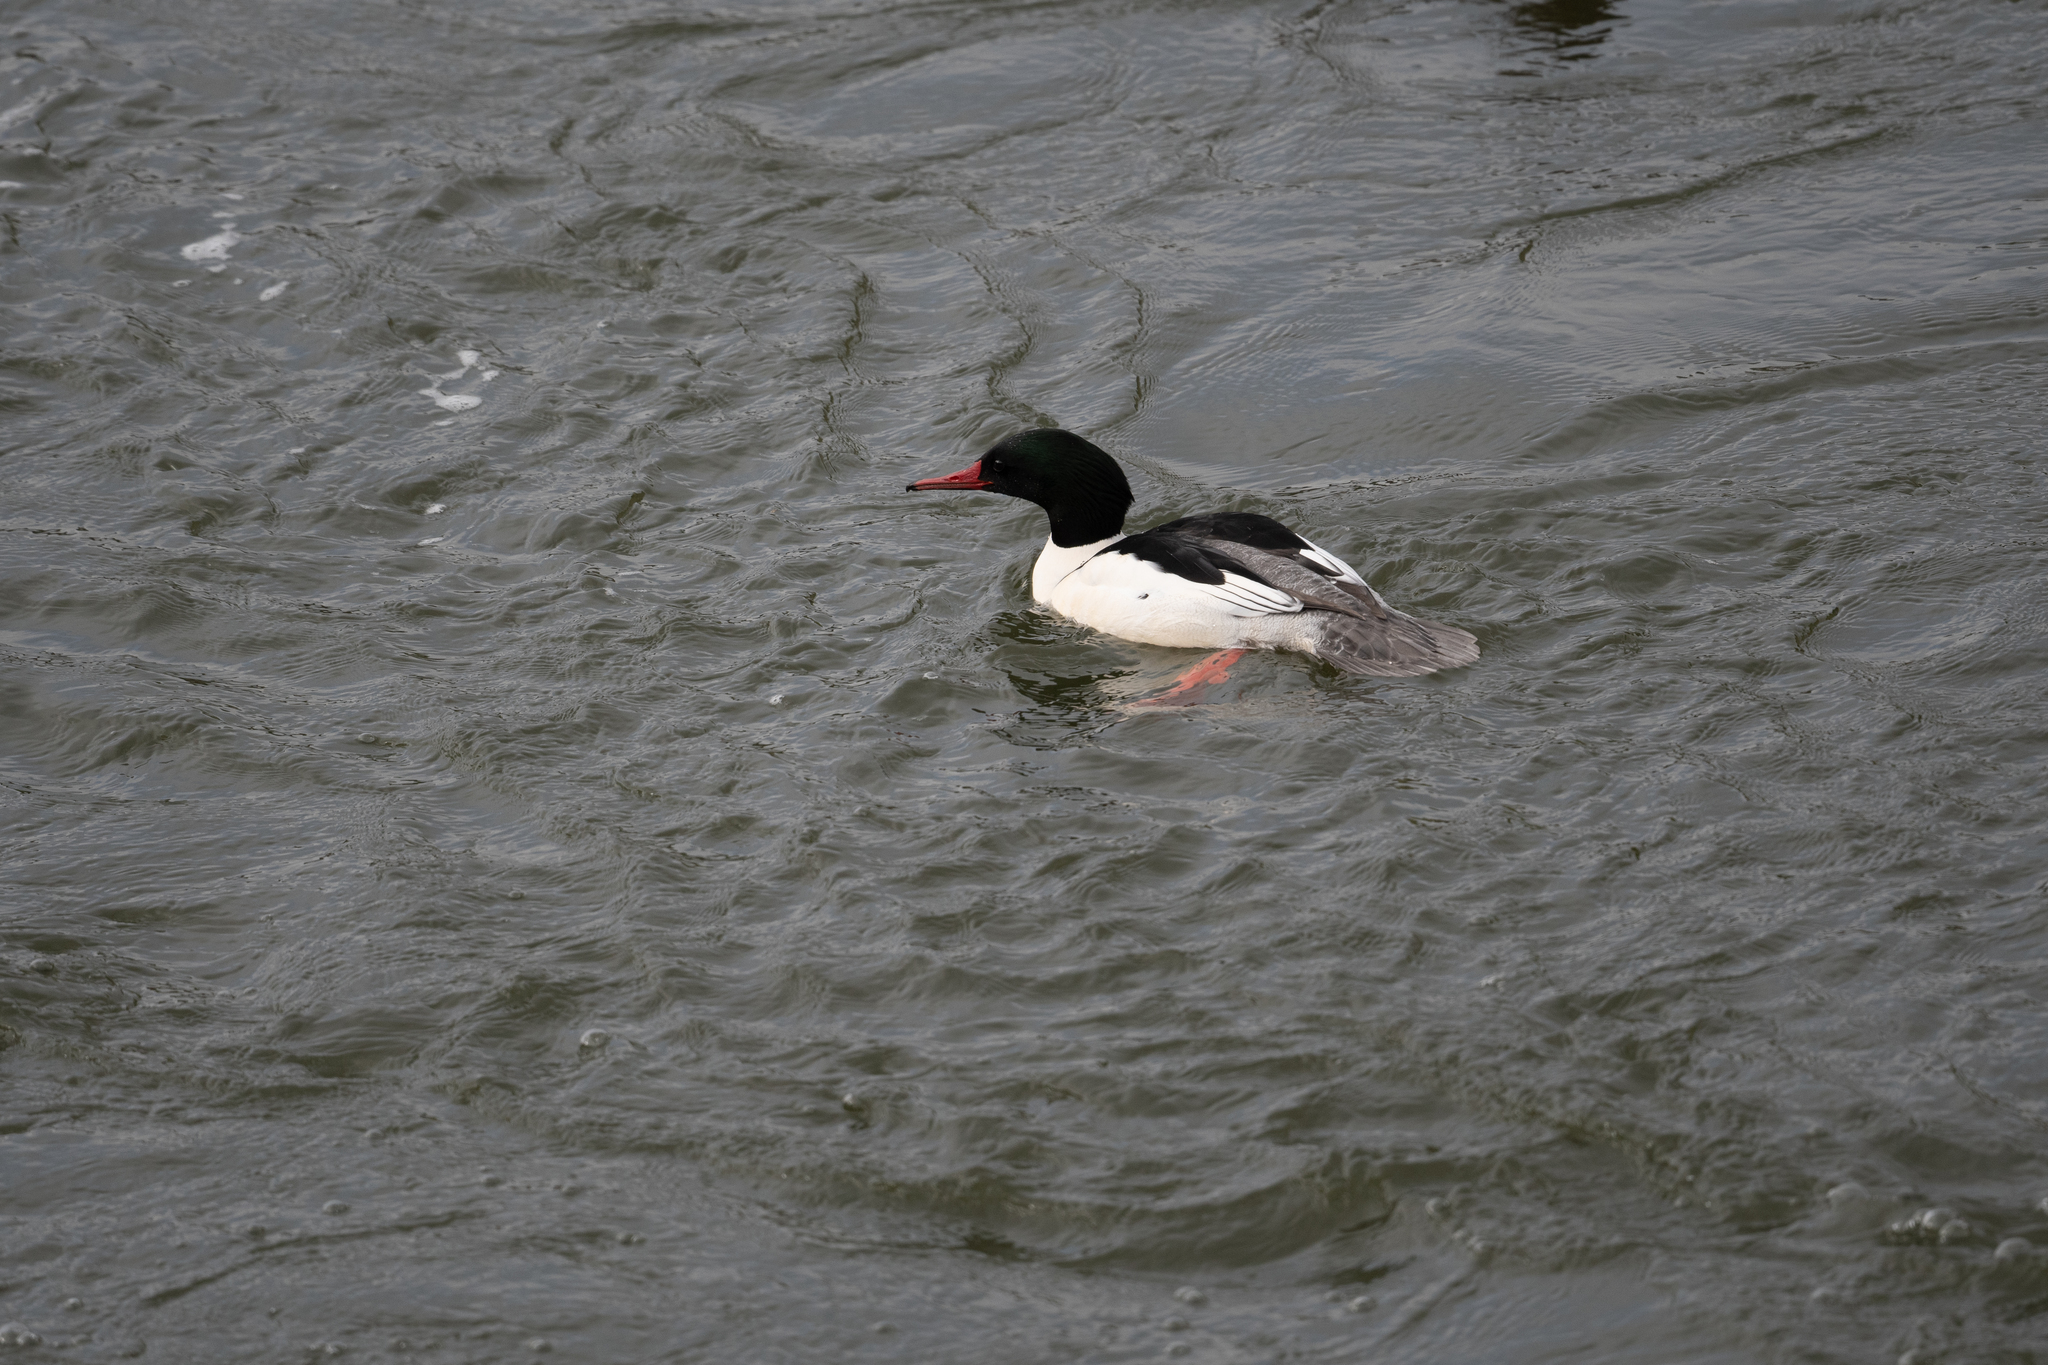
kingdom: Animalia
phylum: Chordata
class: Aves
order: Anseriformes
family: Anatidae
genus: Mergus
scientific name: Mergus merganser
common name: Common merganser
